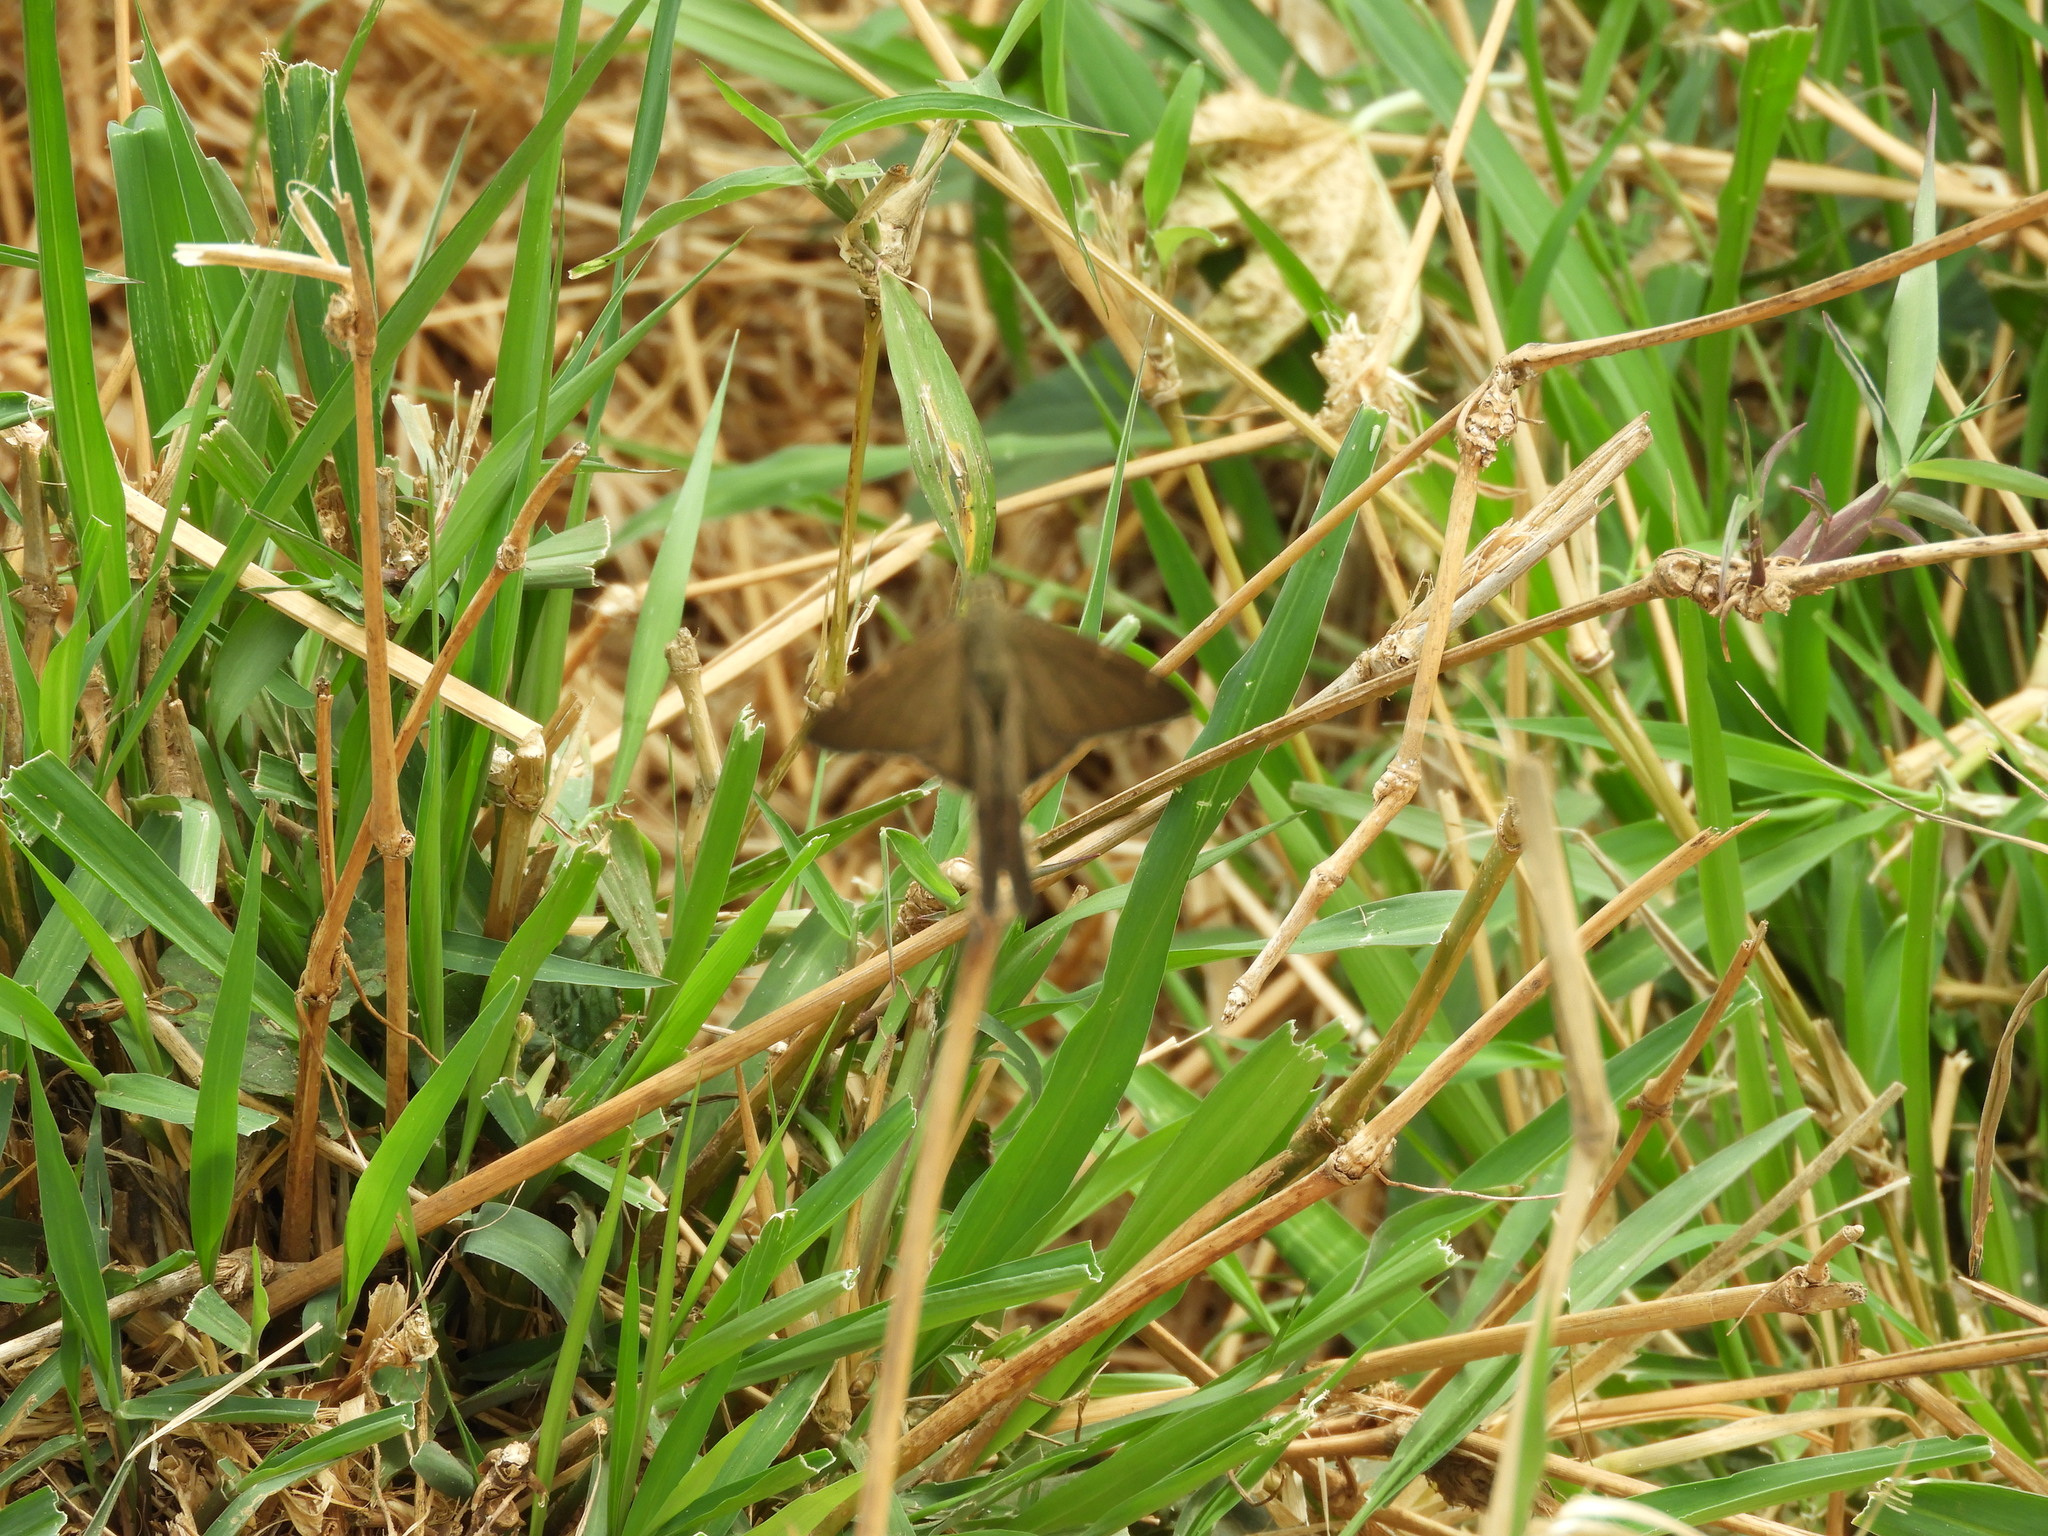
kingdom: Animalia
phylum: Arthropoda
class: Insecta
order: Lepidoptera
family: Hesperiidae
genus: Urbanus
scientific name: Urbanus procne
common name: Brown longtail
